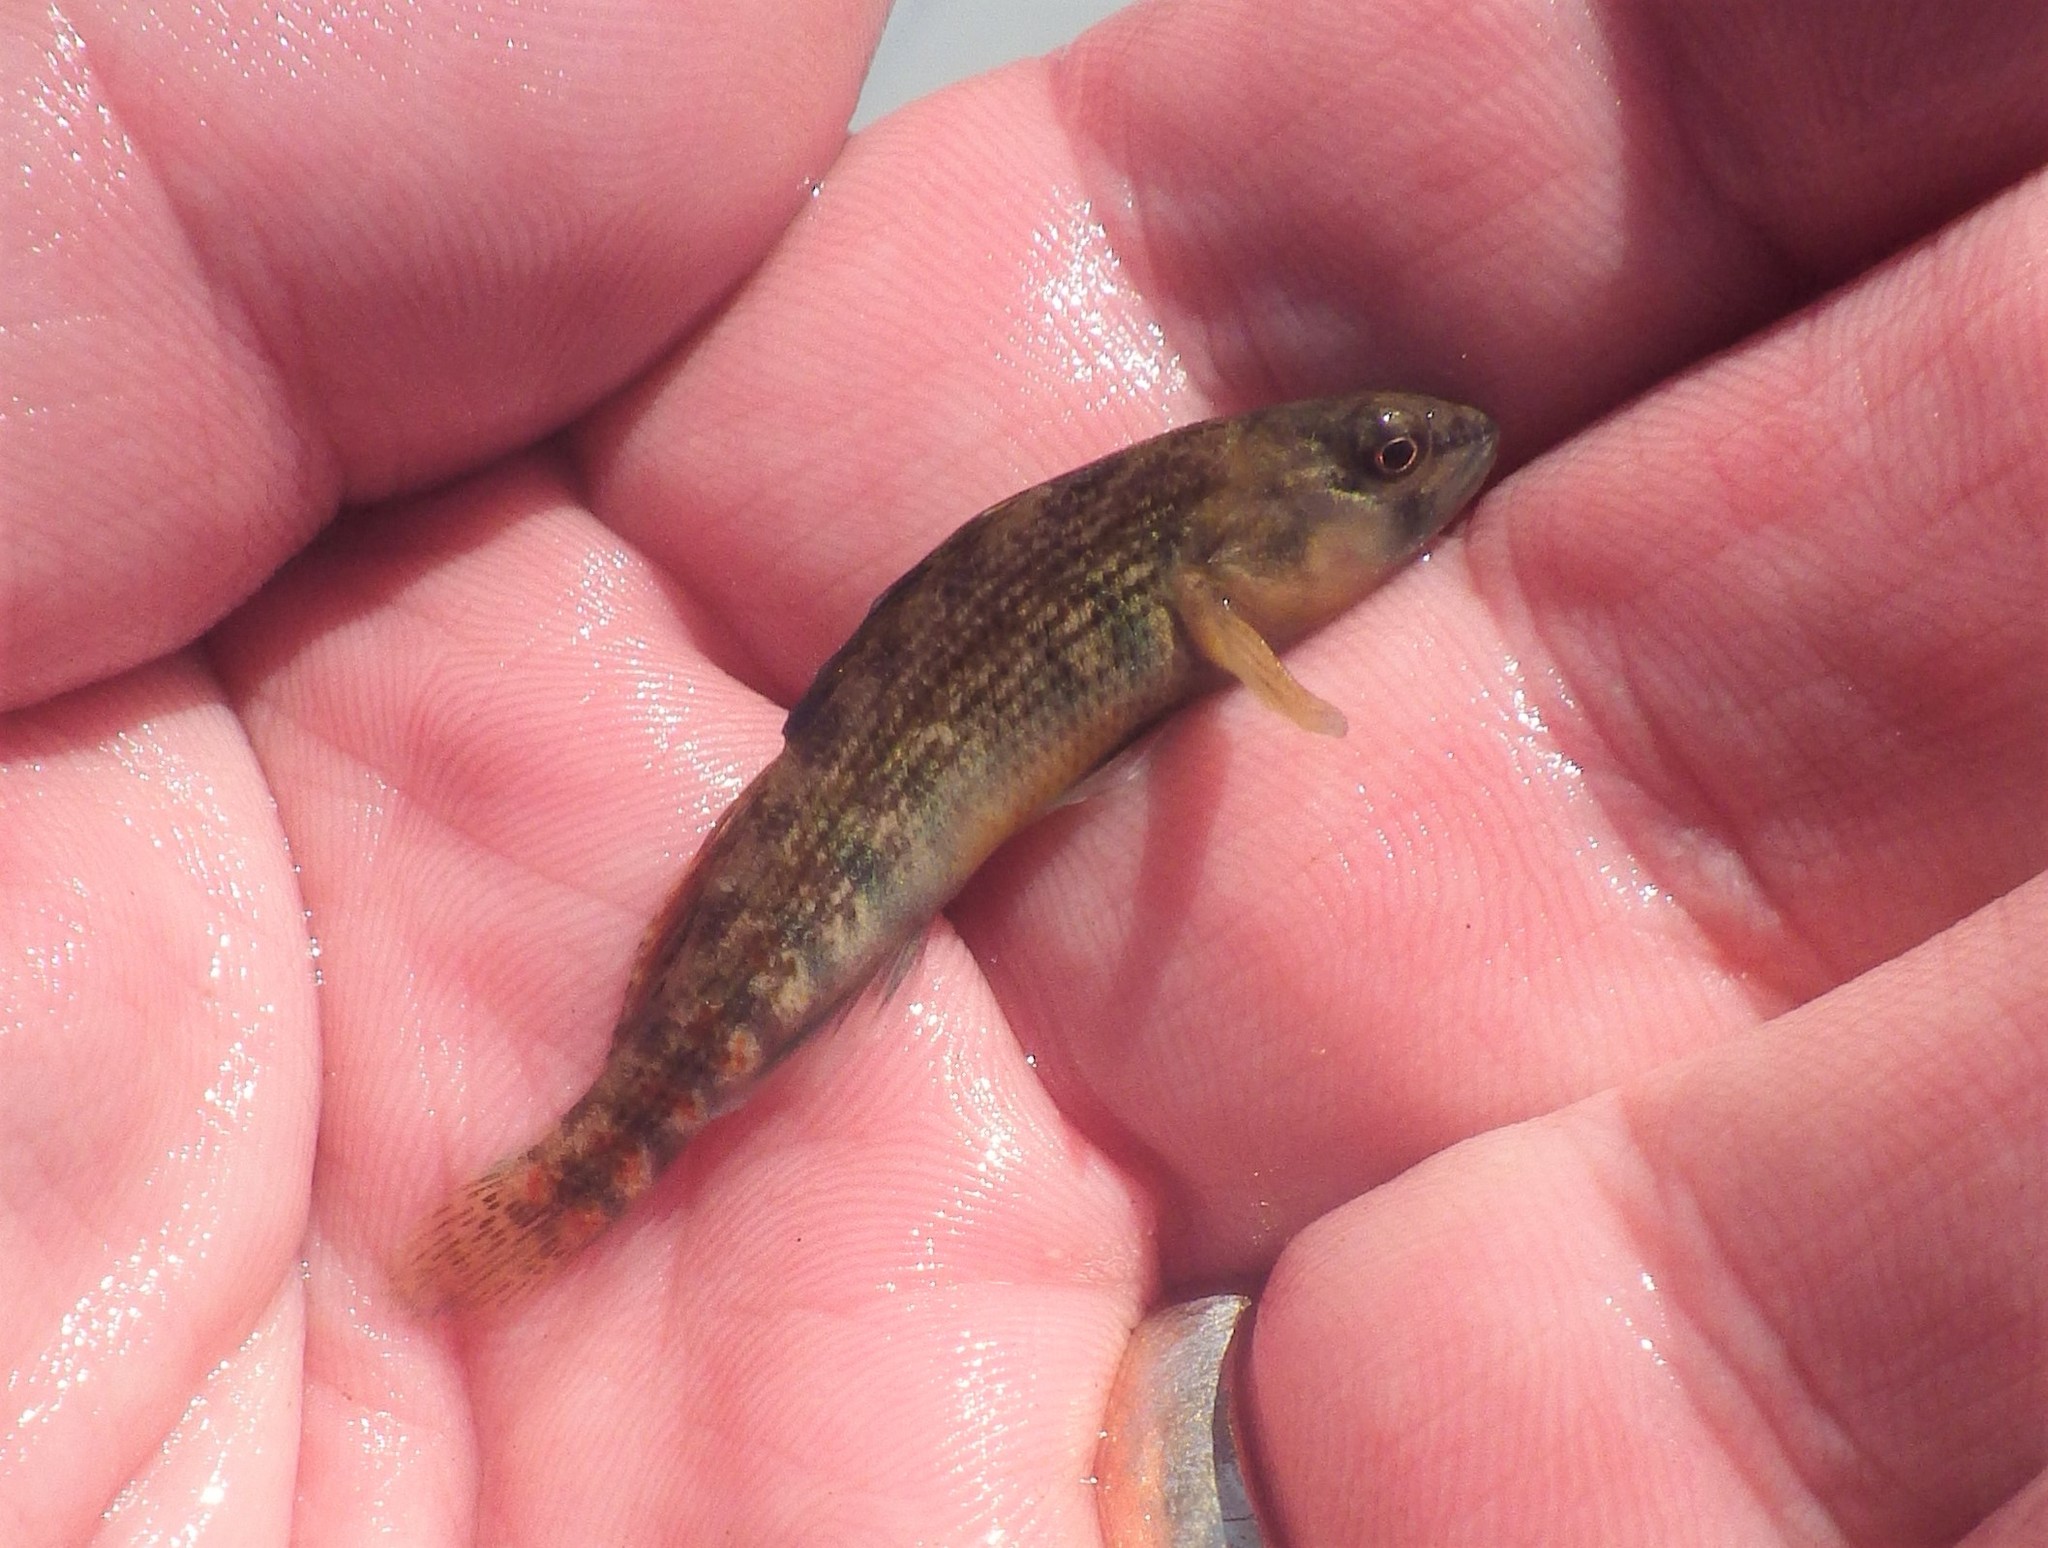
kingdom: Animalia
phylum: Chordata
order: Perciformes
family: Percidae
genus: Etheostoma
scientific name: Etheostoma spectabile
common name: Orangethroat darter
